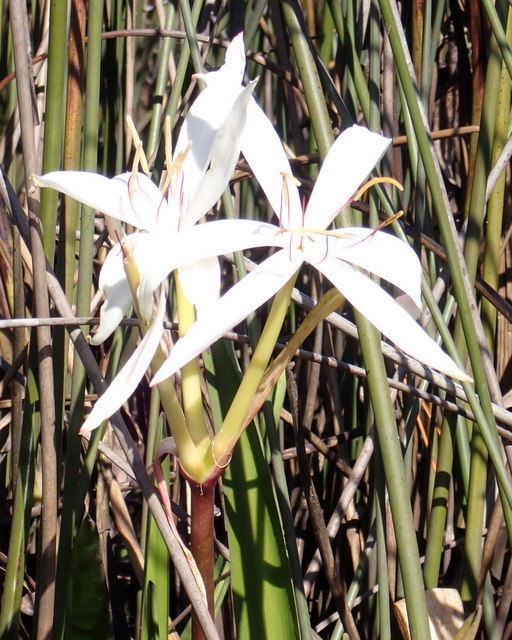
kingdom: Plantae
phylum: Tracheophyta
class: Liliopsida
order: Asparagales
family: Amaryllidaceae
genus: Crinum
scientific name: Crinum americanum
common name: Florida swamp-lily
